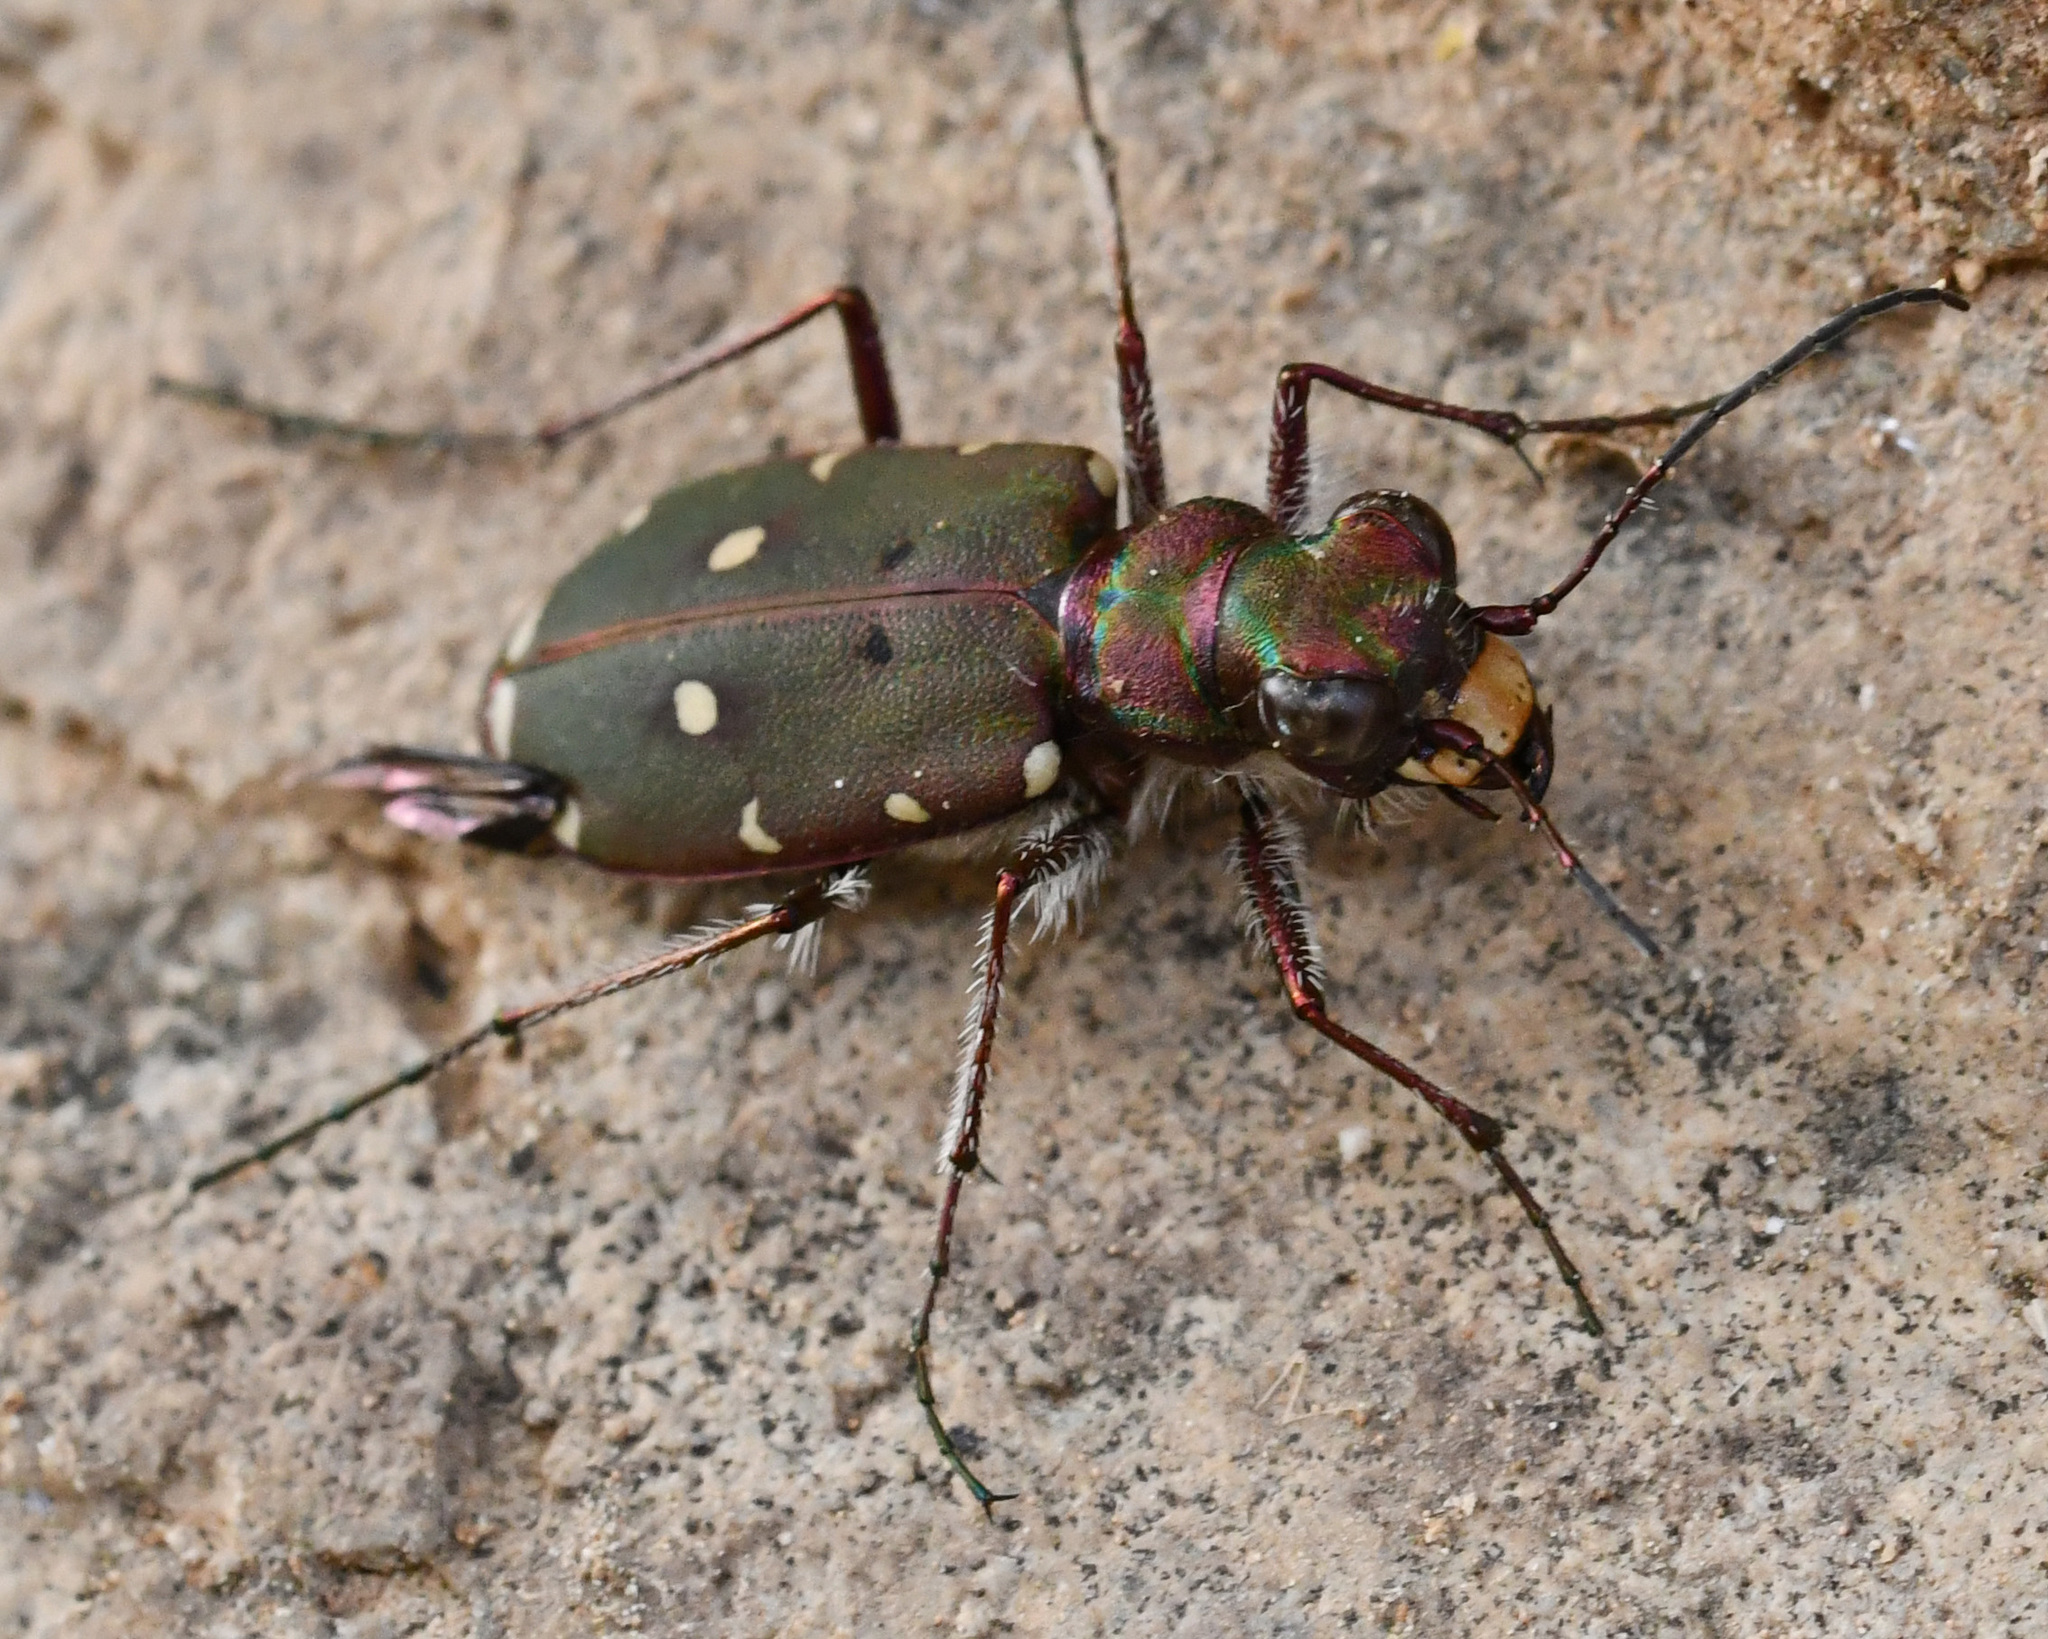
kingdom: Animalia
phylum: Arthropoda
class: Insecta
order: Coleoptera
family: Carabidae
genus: Cicindela
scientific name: Cicindela campestris
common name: Common tiger beetle
